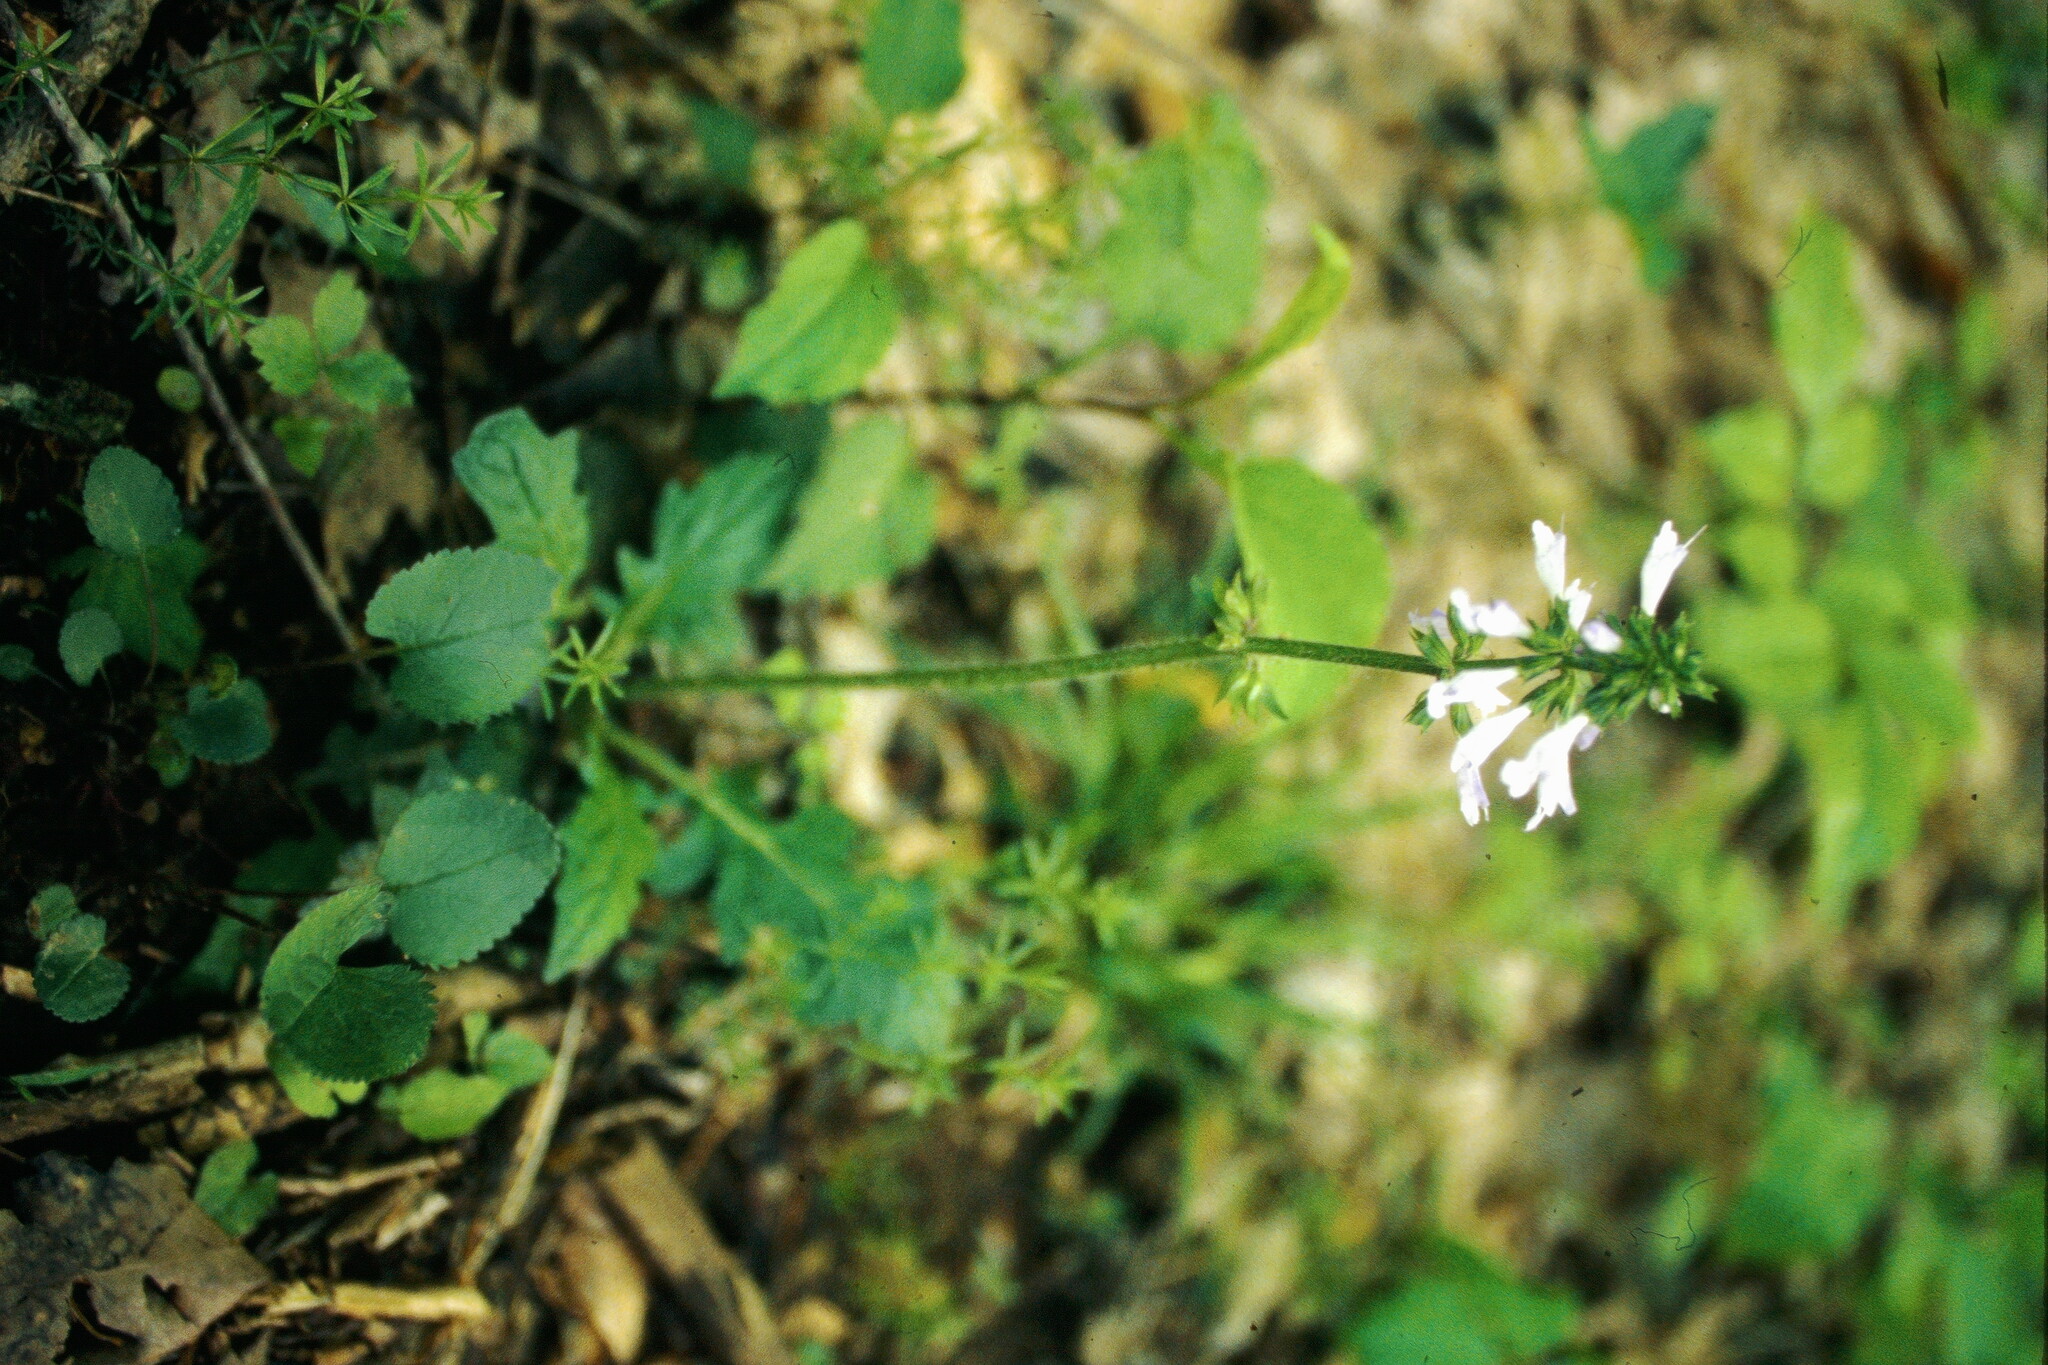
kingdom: Plantae
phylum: Tracheophyta
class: Magnoliopsida
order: Lamiales
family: Lamiaceae
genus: Salvia
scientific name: Salvia lyrata
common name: Cancerweed
